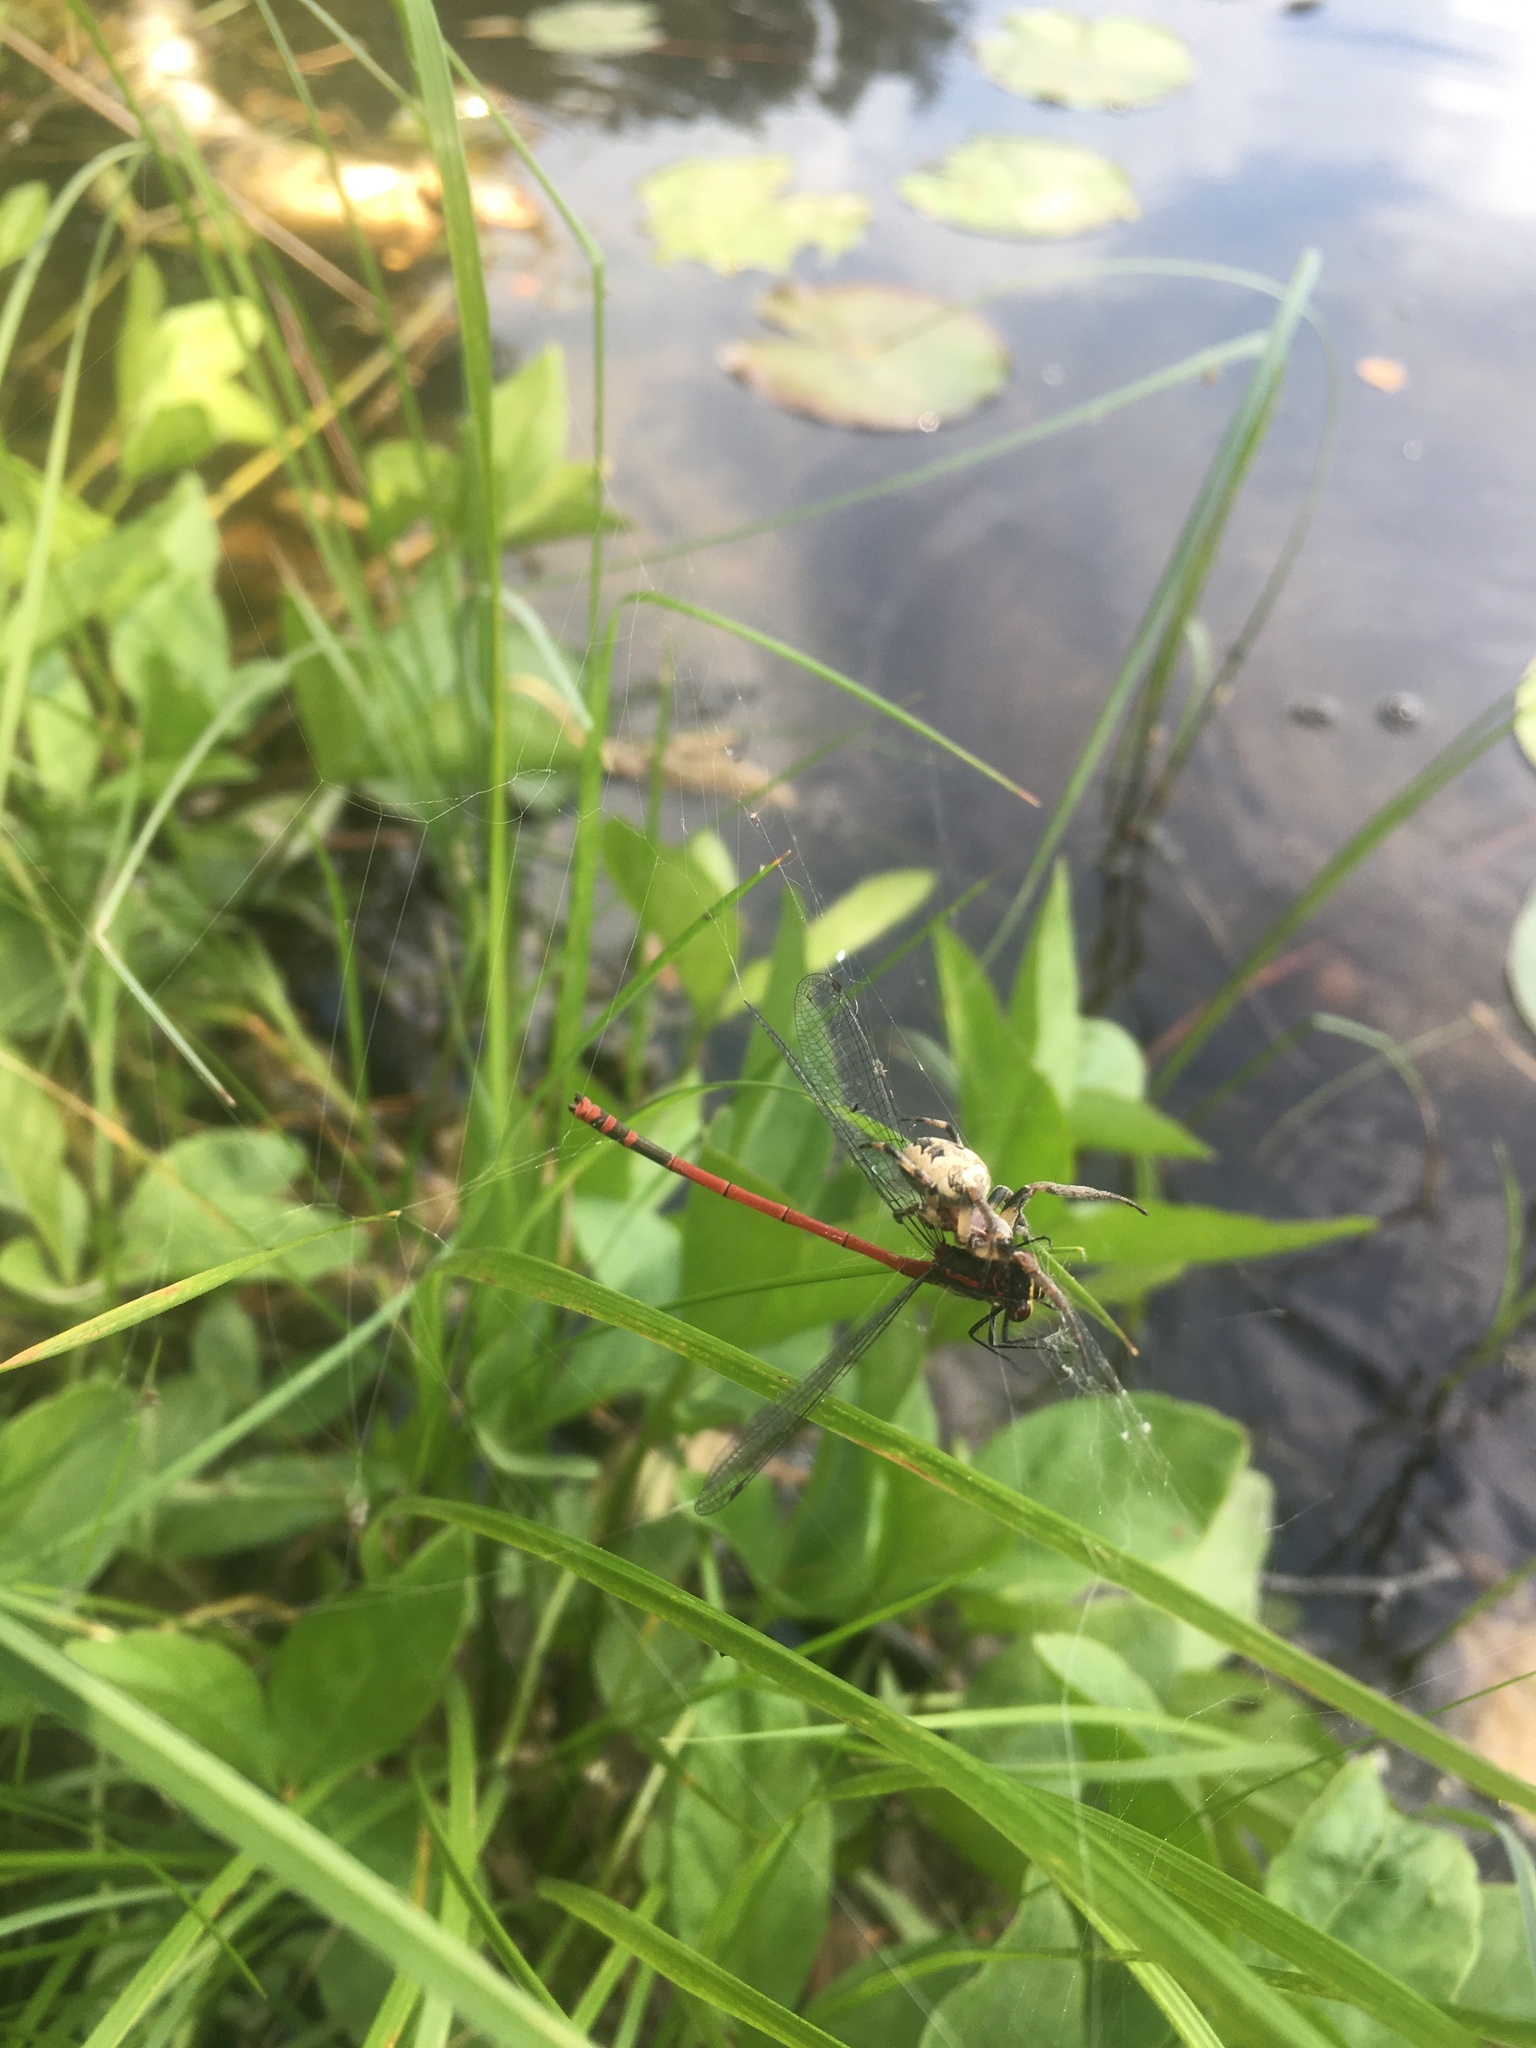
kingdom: Animalia
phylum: Arthropoda
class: Insecta
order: Odonata
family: Coenagrionidae
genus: Pyrrhosoma
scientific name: Pyrrhosoma nymphula
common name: Large red damsel
